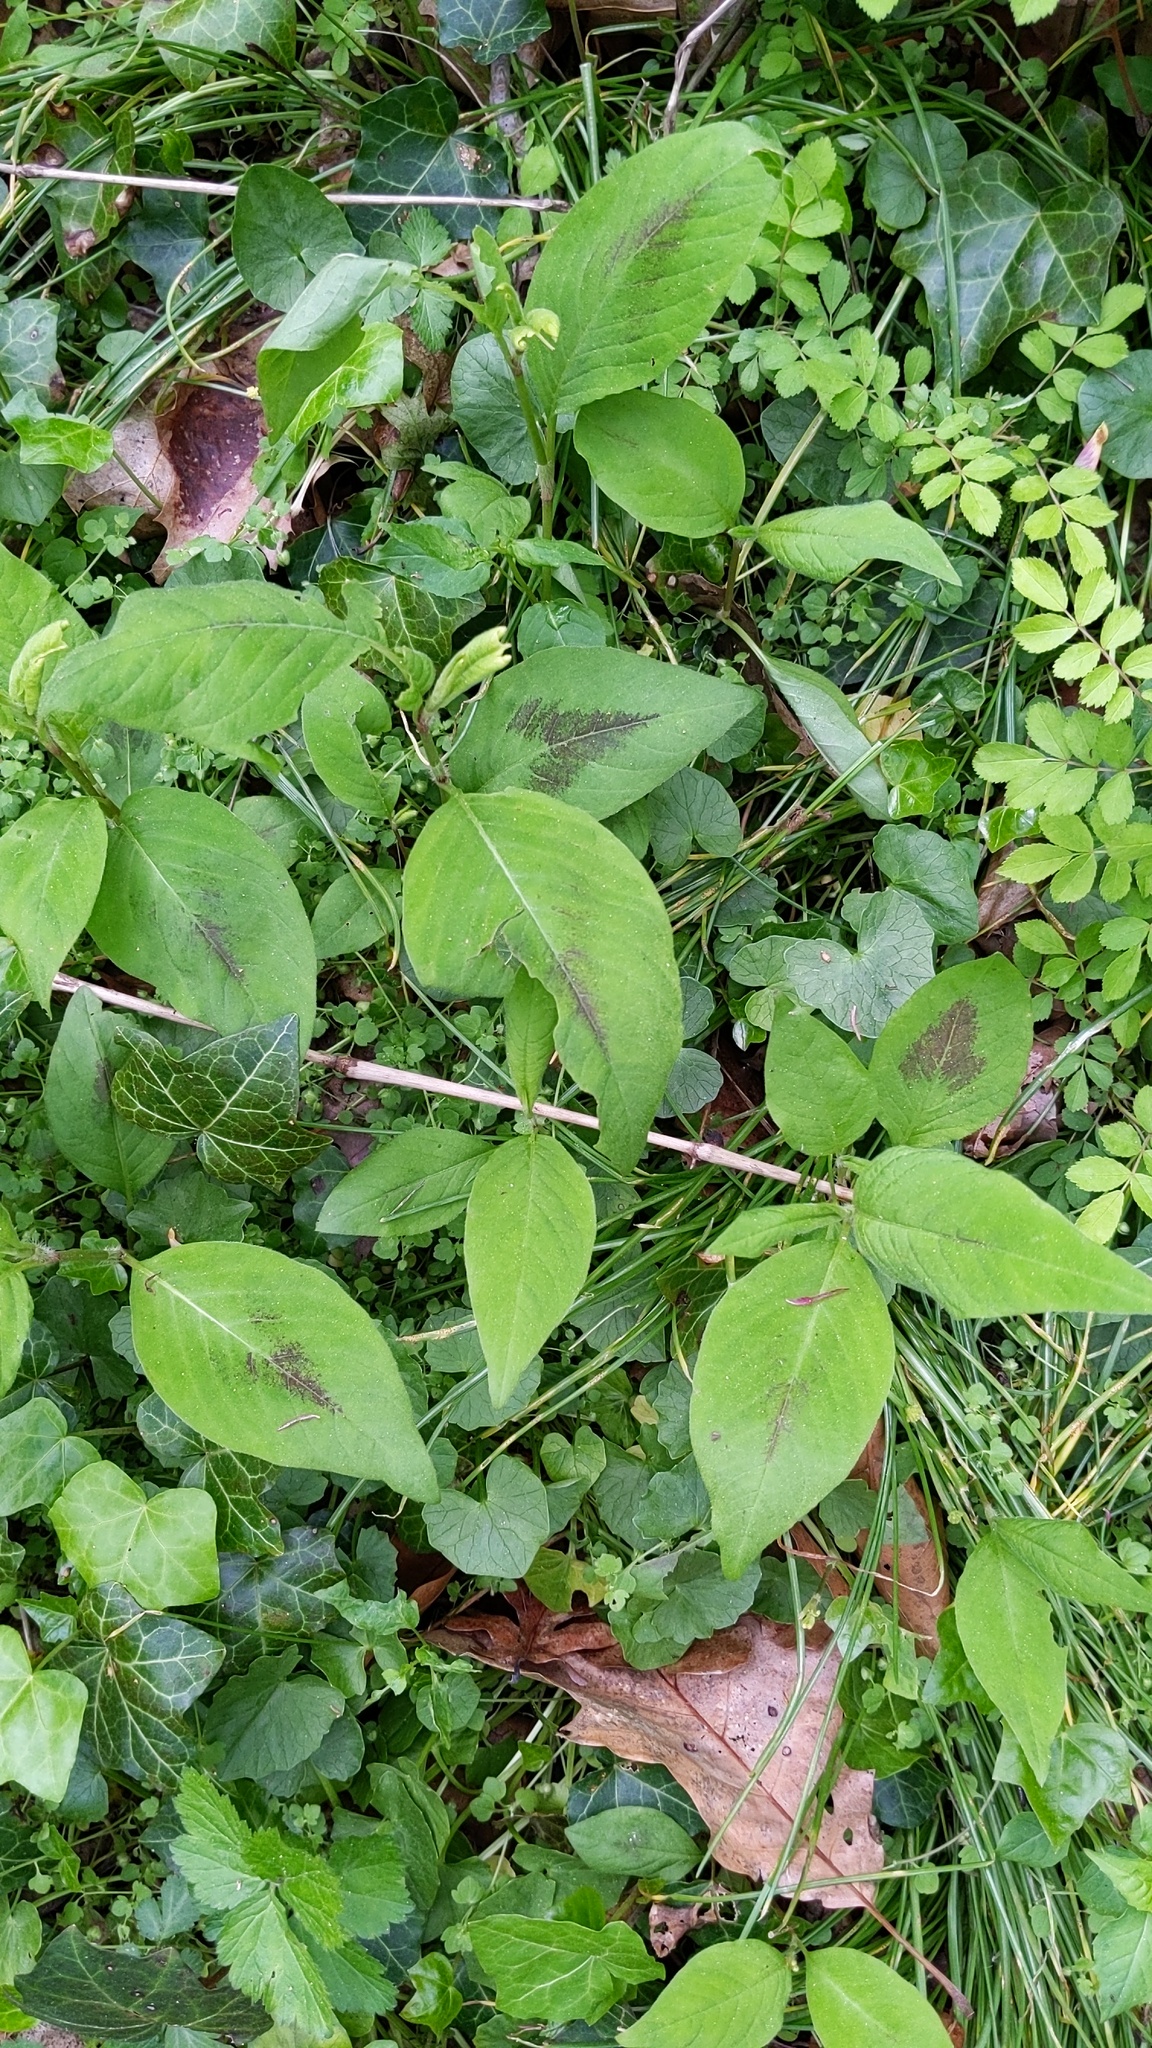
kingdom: Plantae
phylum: Tracheophyta
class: Magnoliopsida
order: Caryophyllales
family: Polygonaceae
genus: Persicaria
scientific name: Persicaria virginiana
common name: Jumpseed
